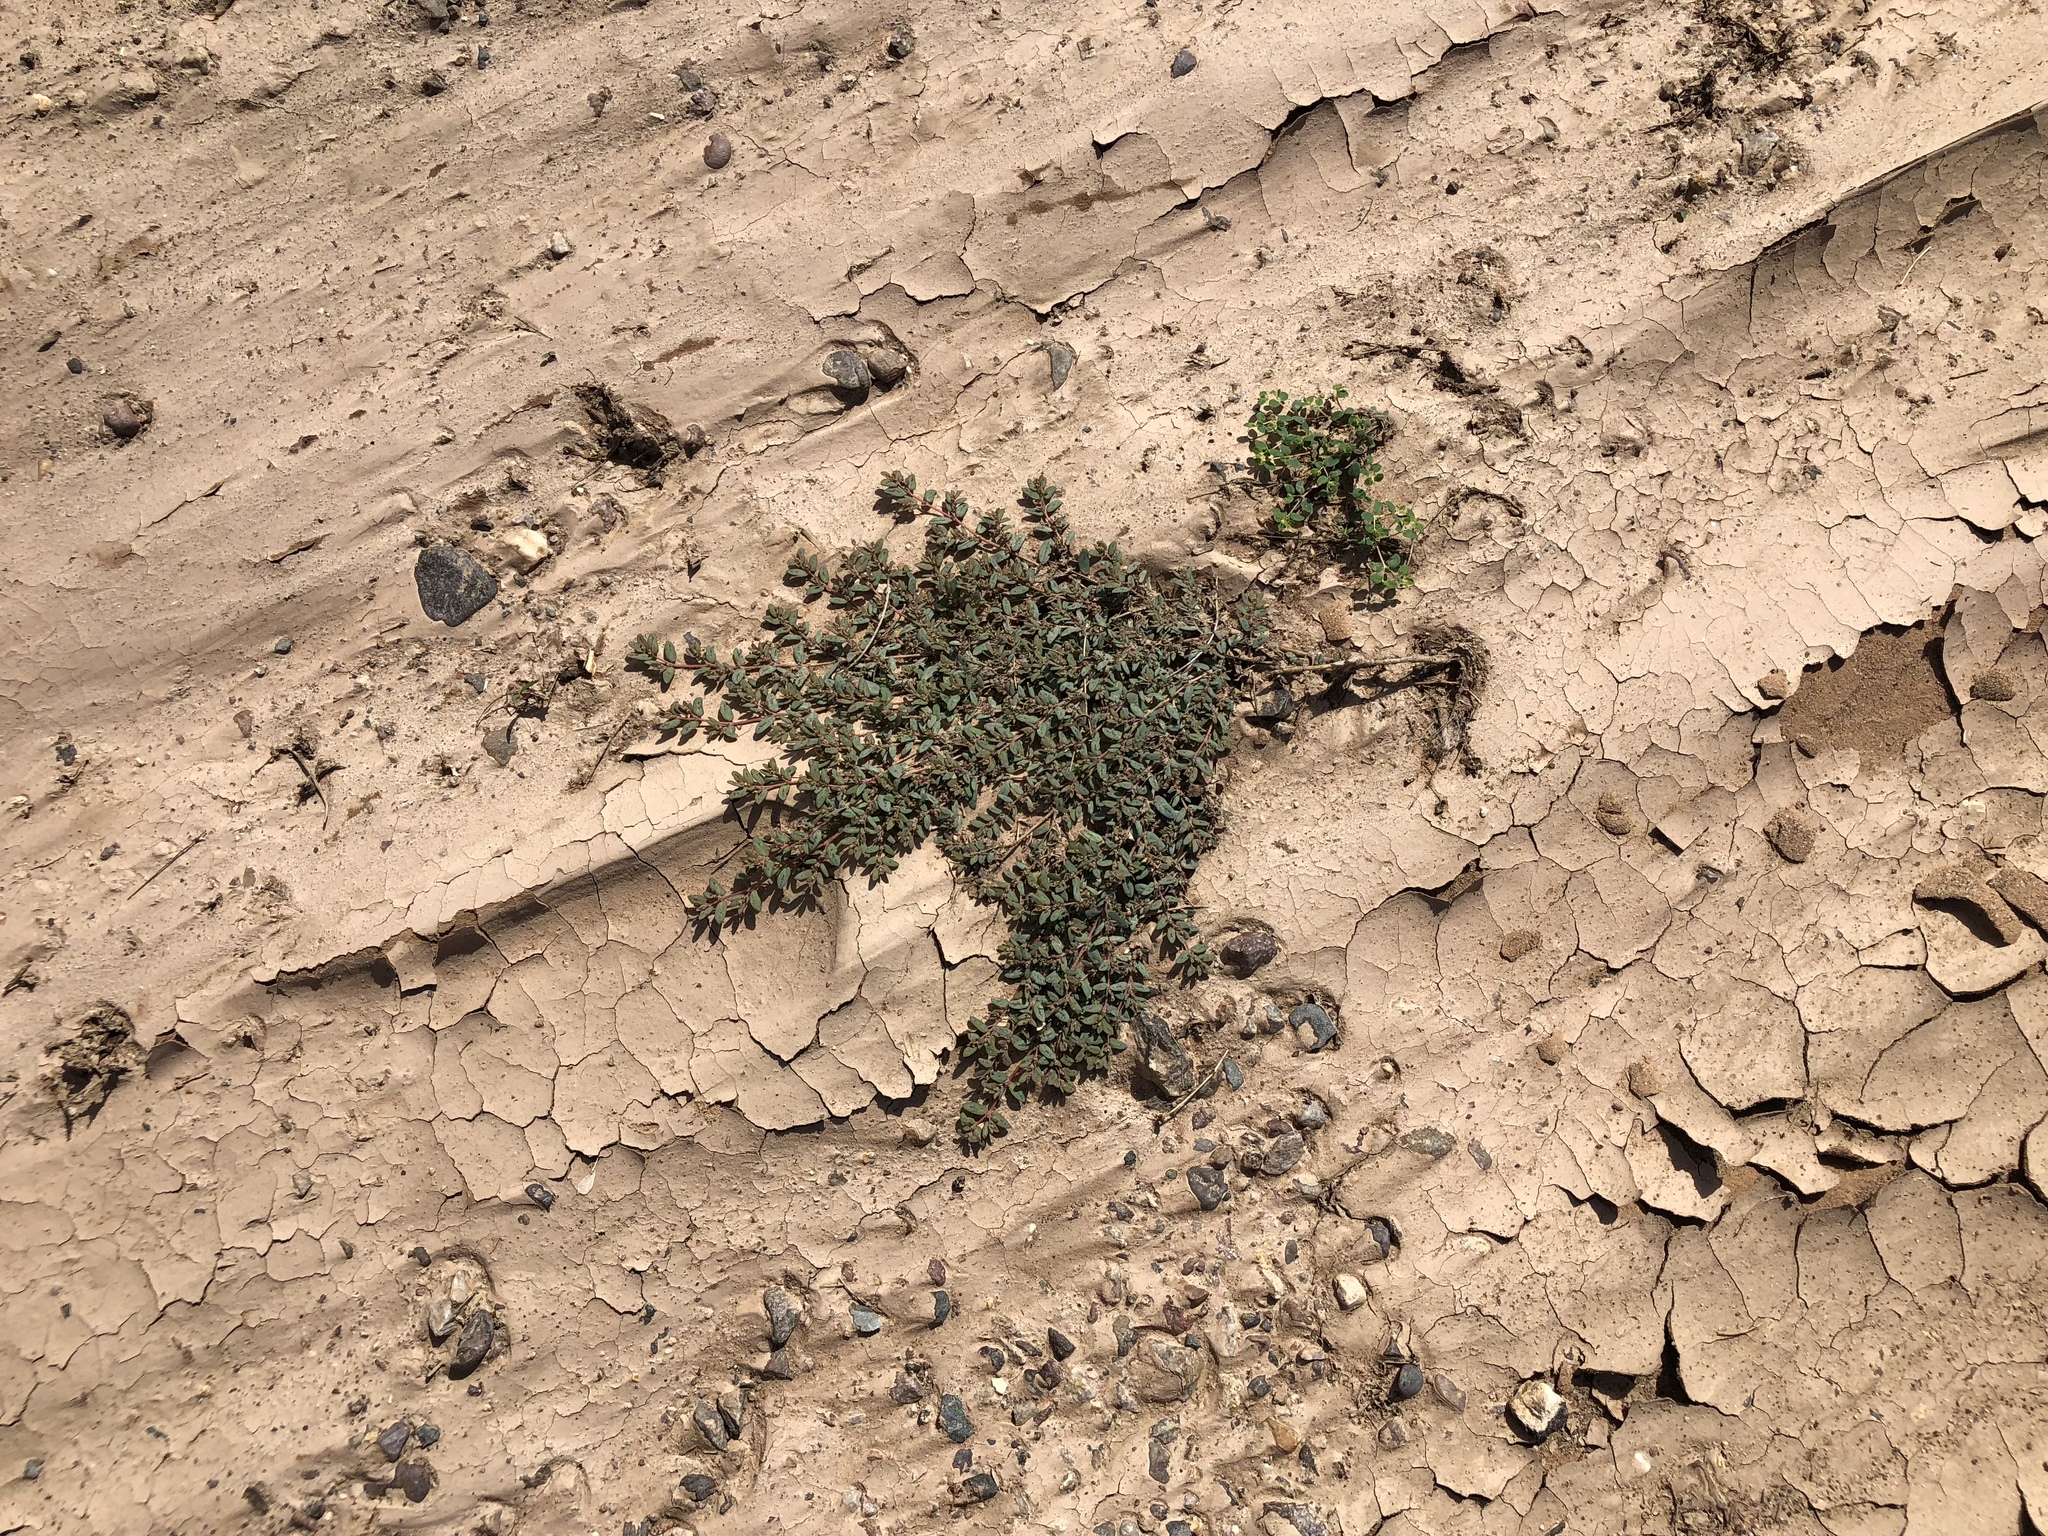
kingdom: Plantae
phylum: Tracheophyta
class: Magnoliopsida
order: Malpighiales
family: Euphorbiaceae
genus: Euphorbia
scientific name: Euphorbia abramsiana
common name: Abram's spurge
